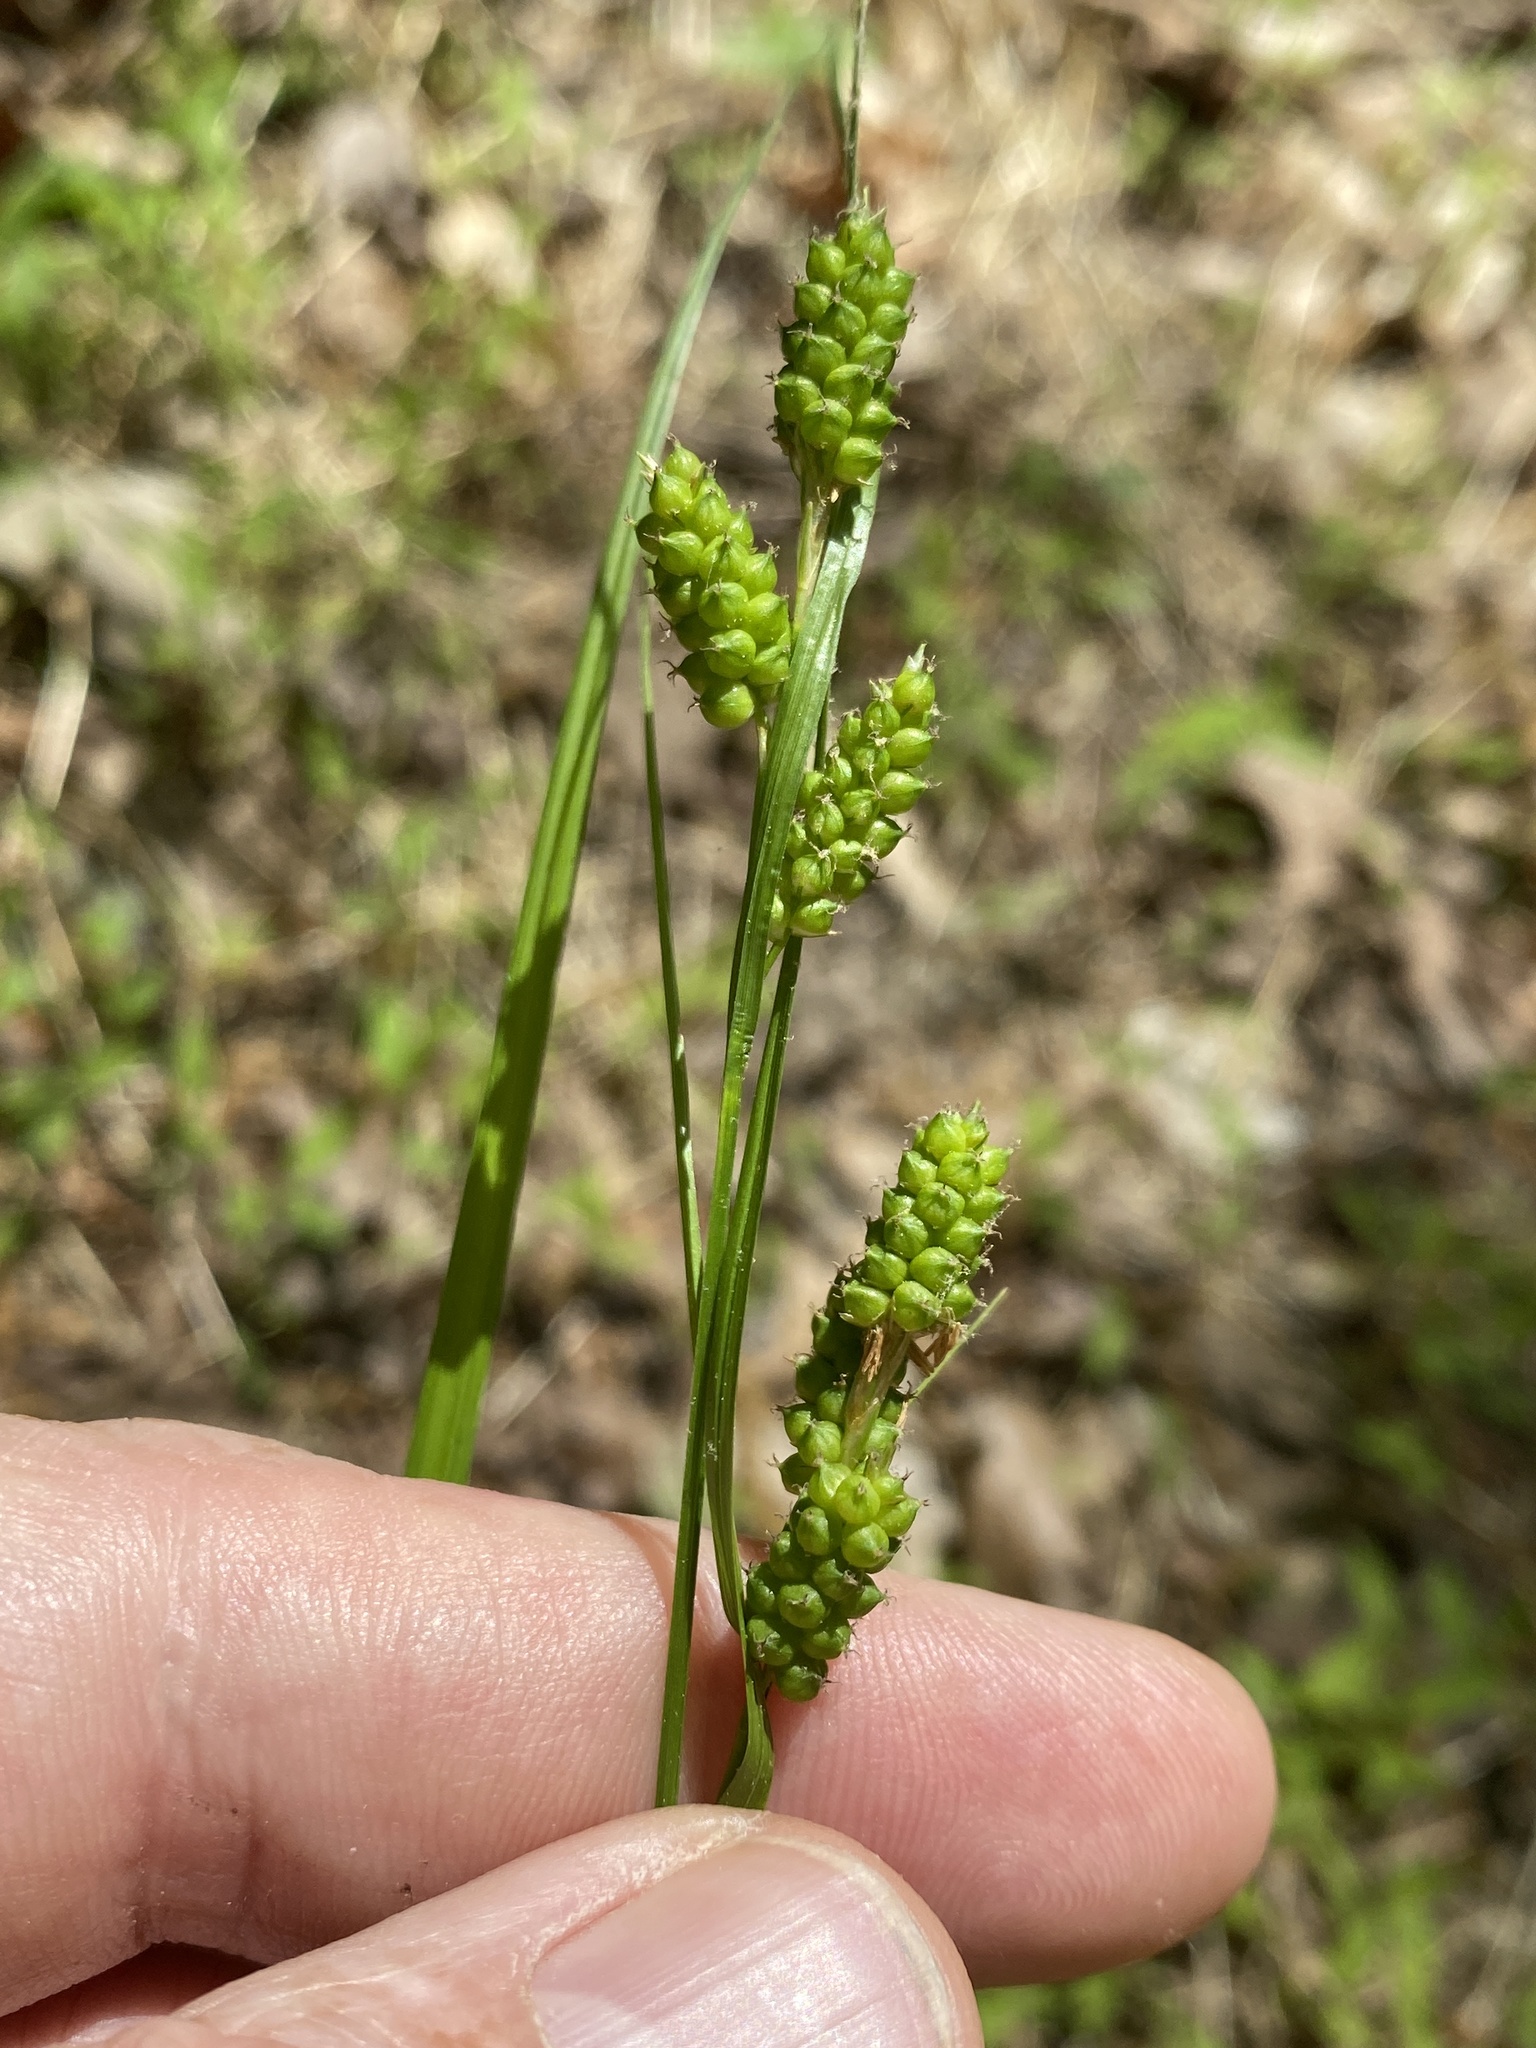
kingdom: Plantae
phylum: Tracheophyta
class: Liliopsida
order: Poales
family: Cyperaceae
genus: Carex
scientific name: Carex caroliniana
